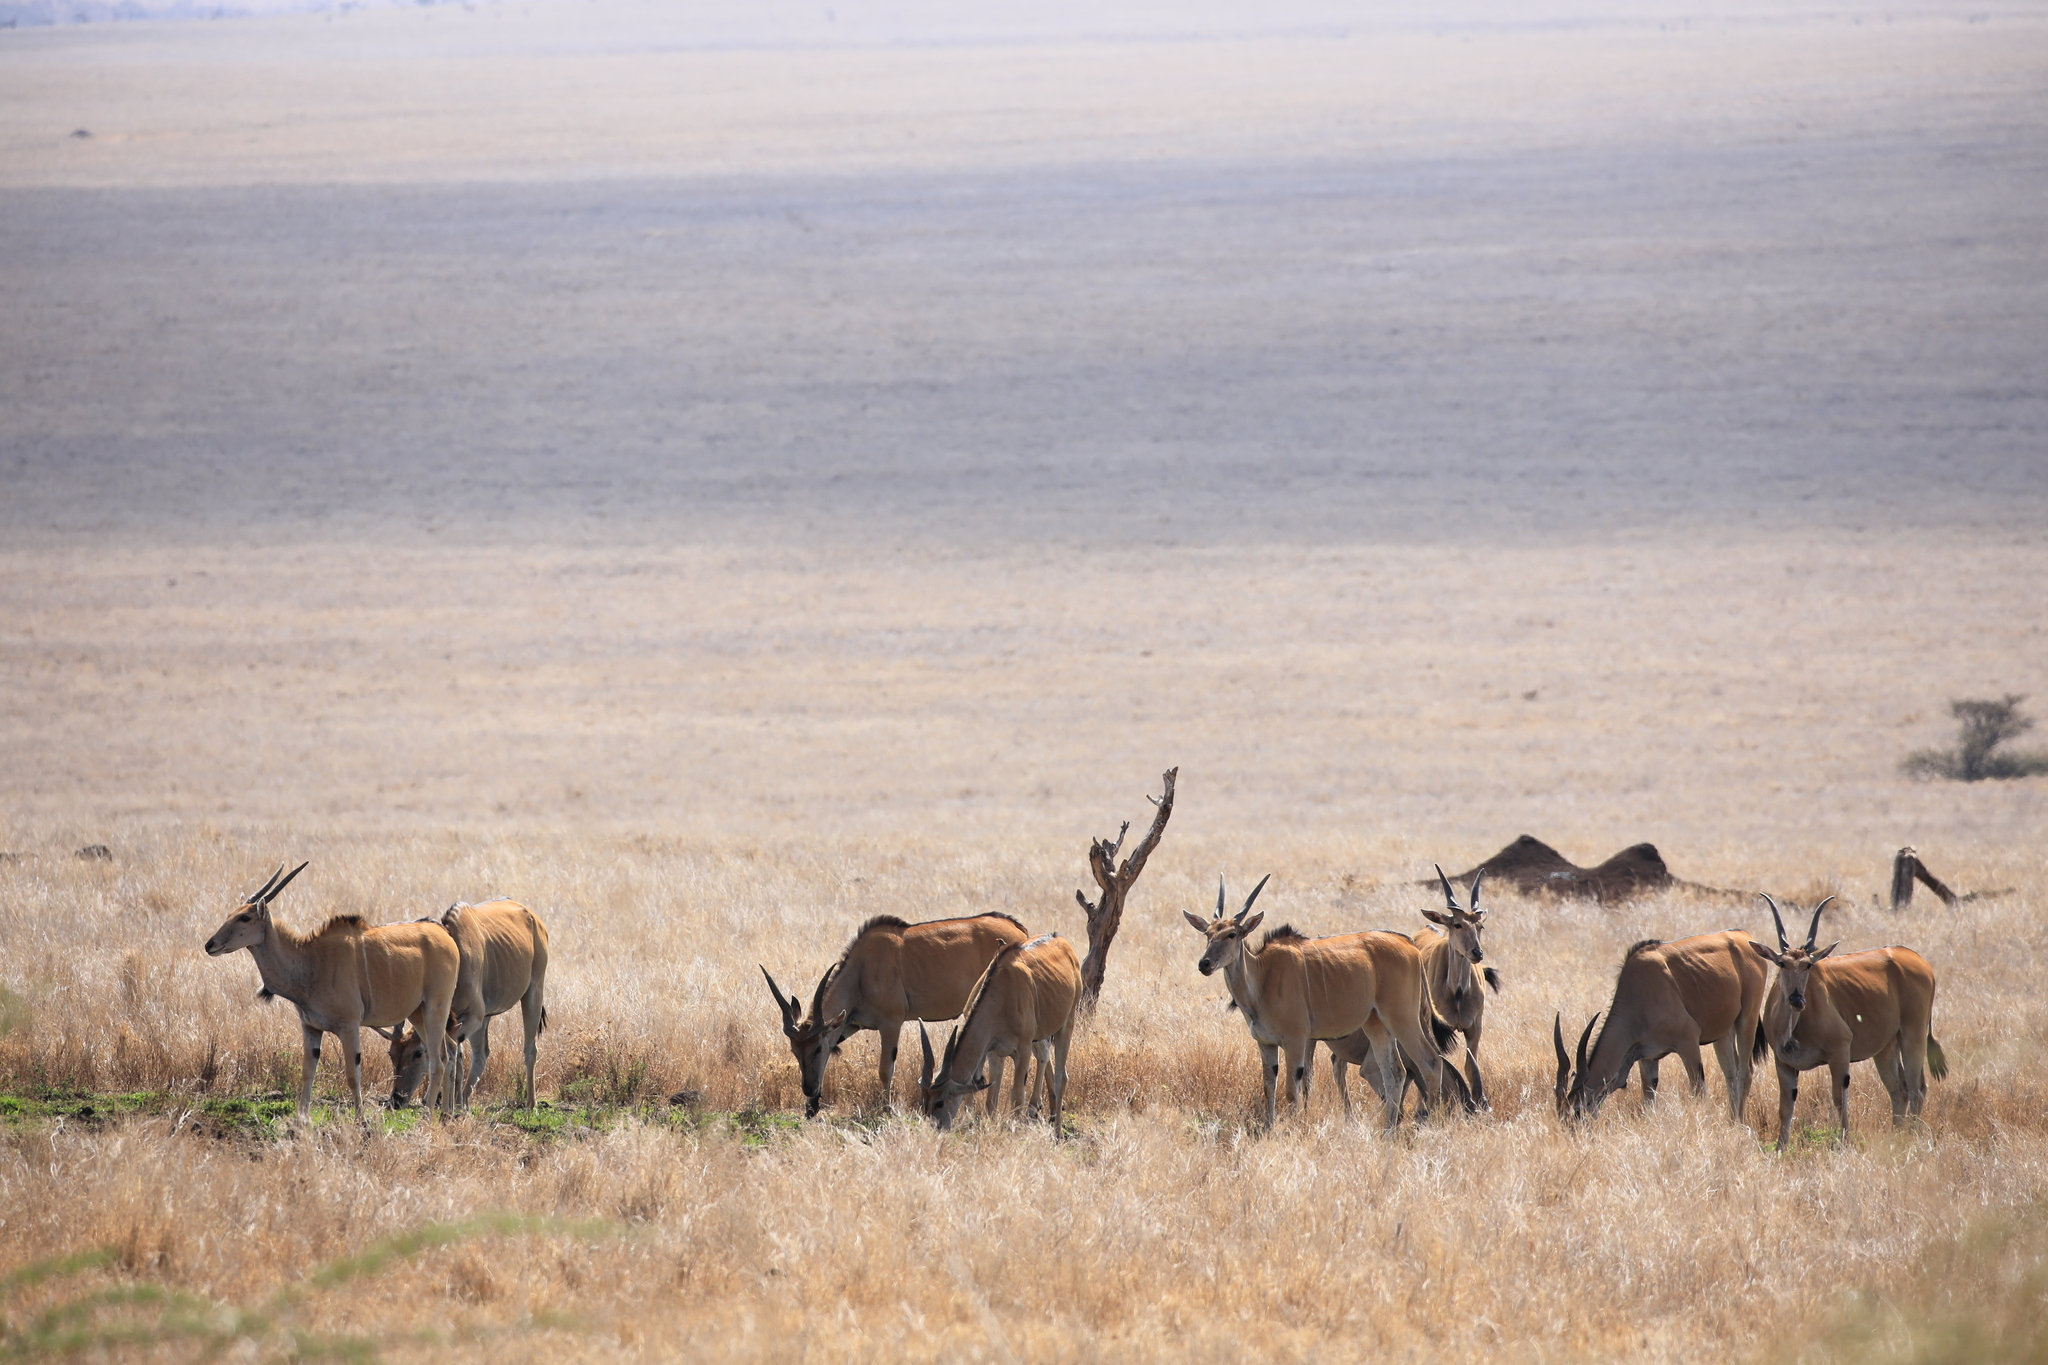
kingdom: Animalia
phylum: Chordata
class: Mammalia
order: Artiodactyla
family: Bovidae
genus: Taurotragus
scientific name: Taurotragus oryx
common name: Common eland
